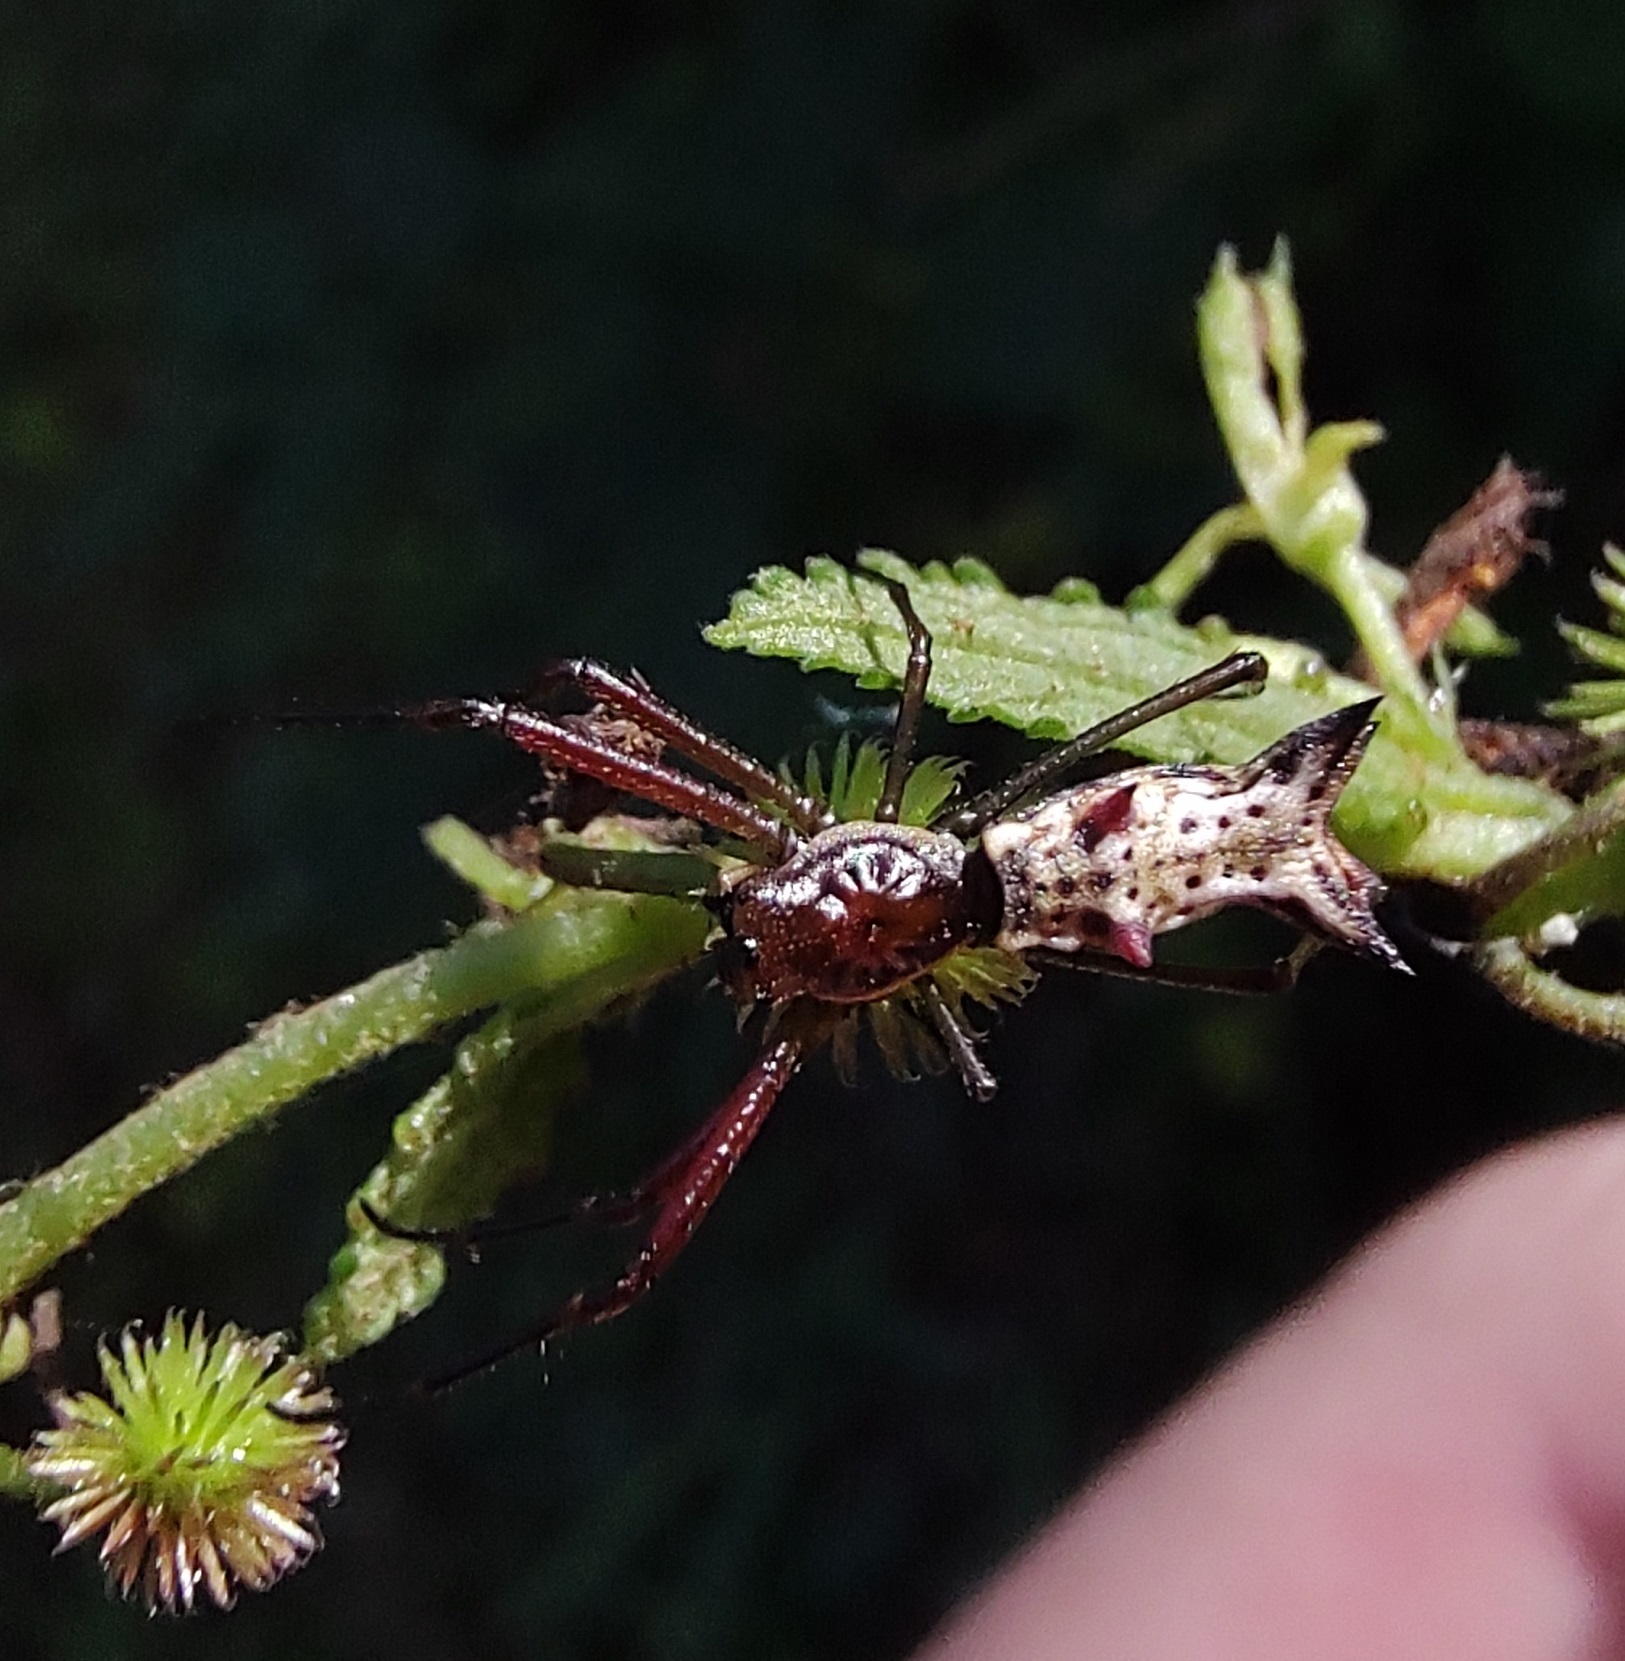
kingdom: Animalia
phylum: Arthropoda
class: Arachnida
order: Araneae
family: Araneidae
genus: Micrathena
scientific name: Micrathena nigrichelis
